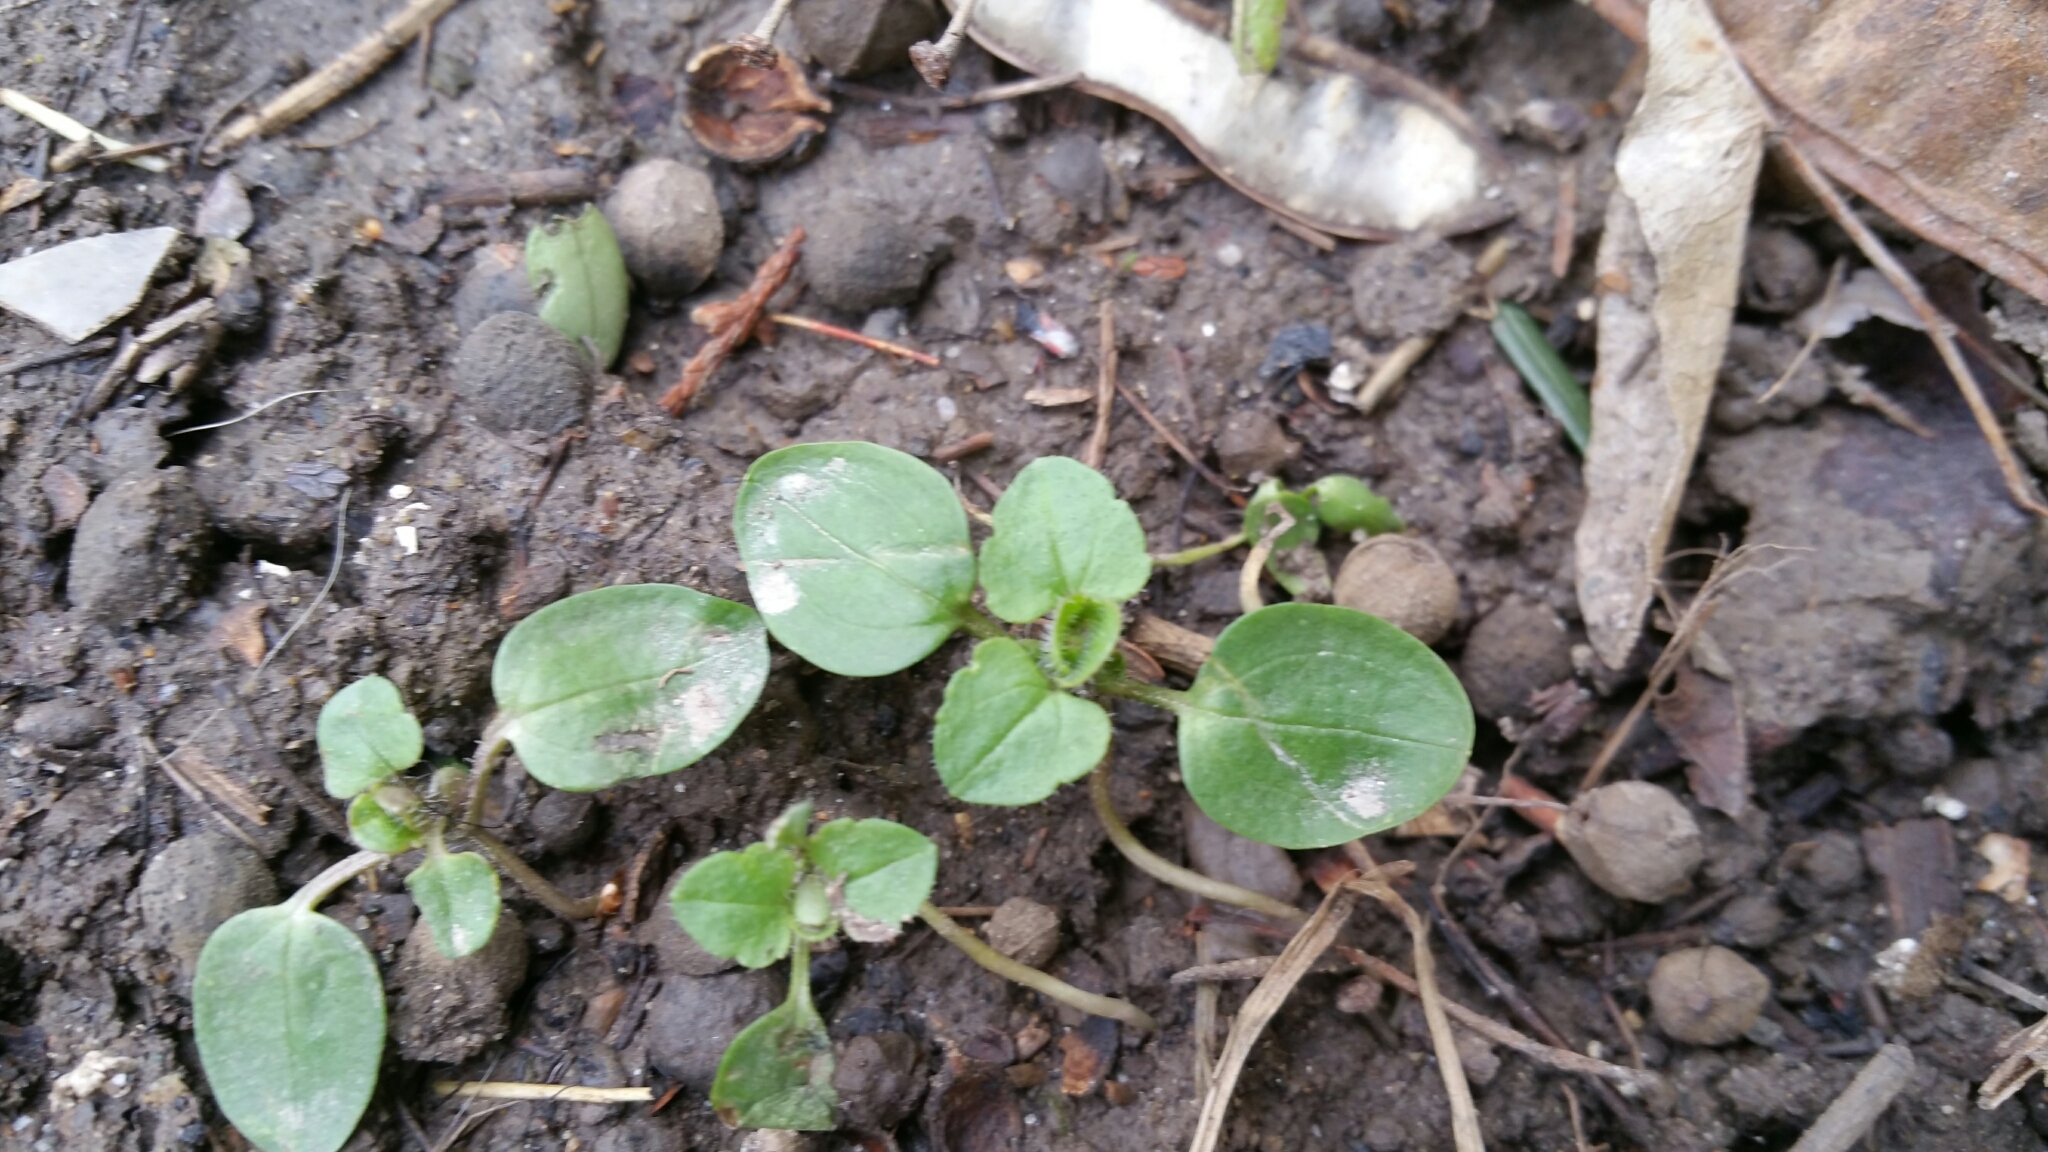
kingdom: Plantae
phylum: Tracheophyta
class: Magnoliopsida
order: Lamiales
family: Plantaginaceae
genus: Veronica
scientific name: Veronica hederifolia
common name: Ivy-leaved speedwell
